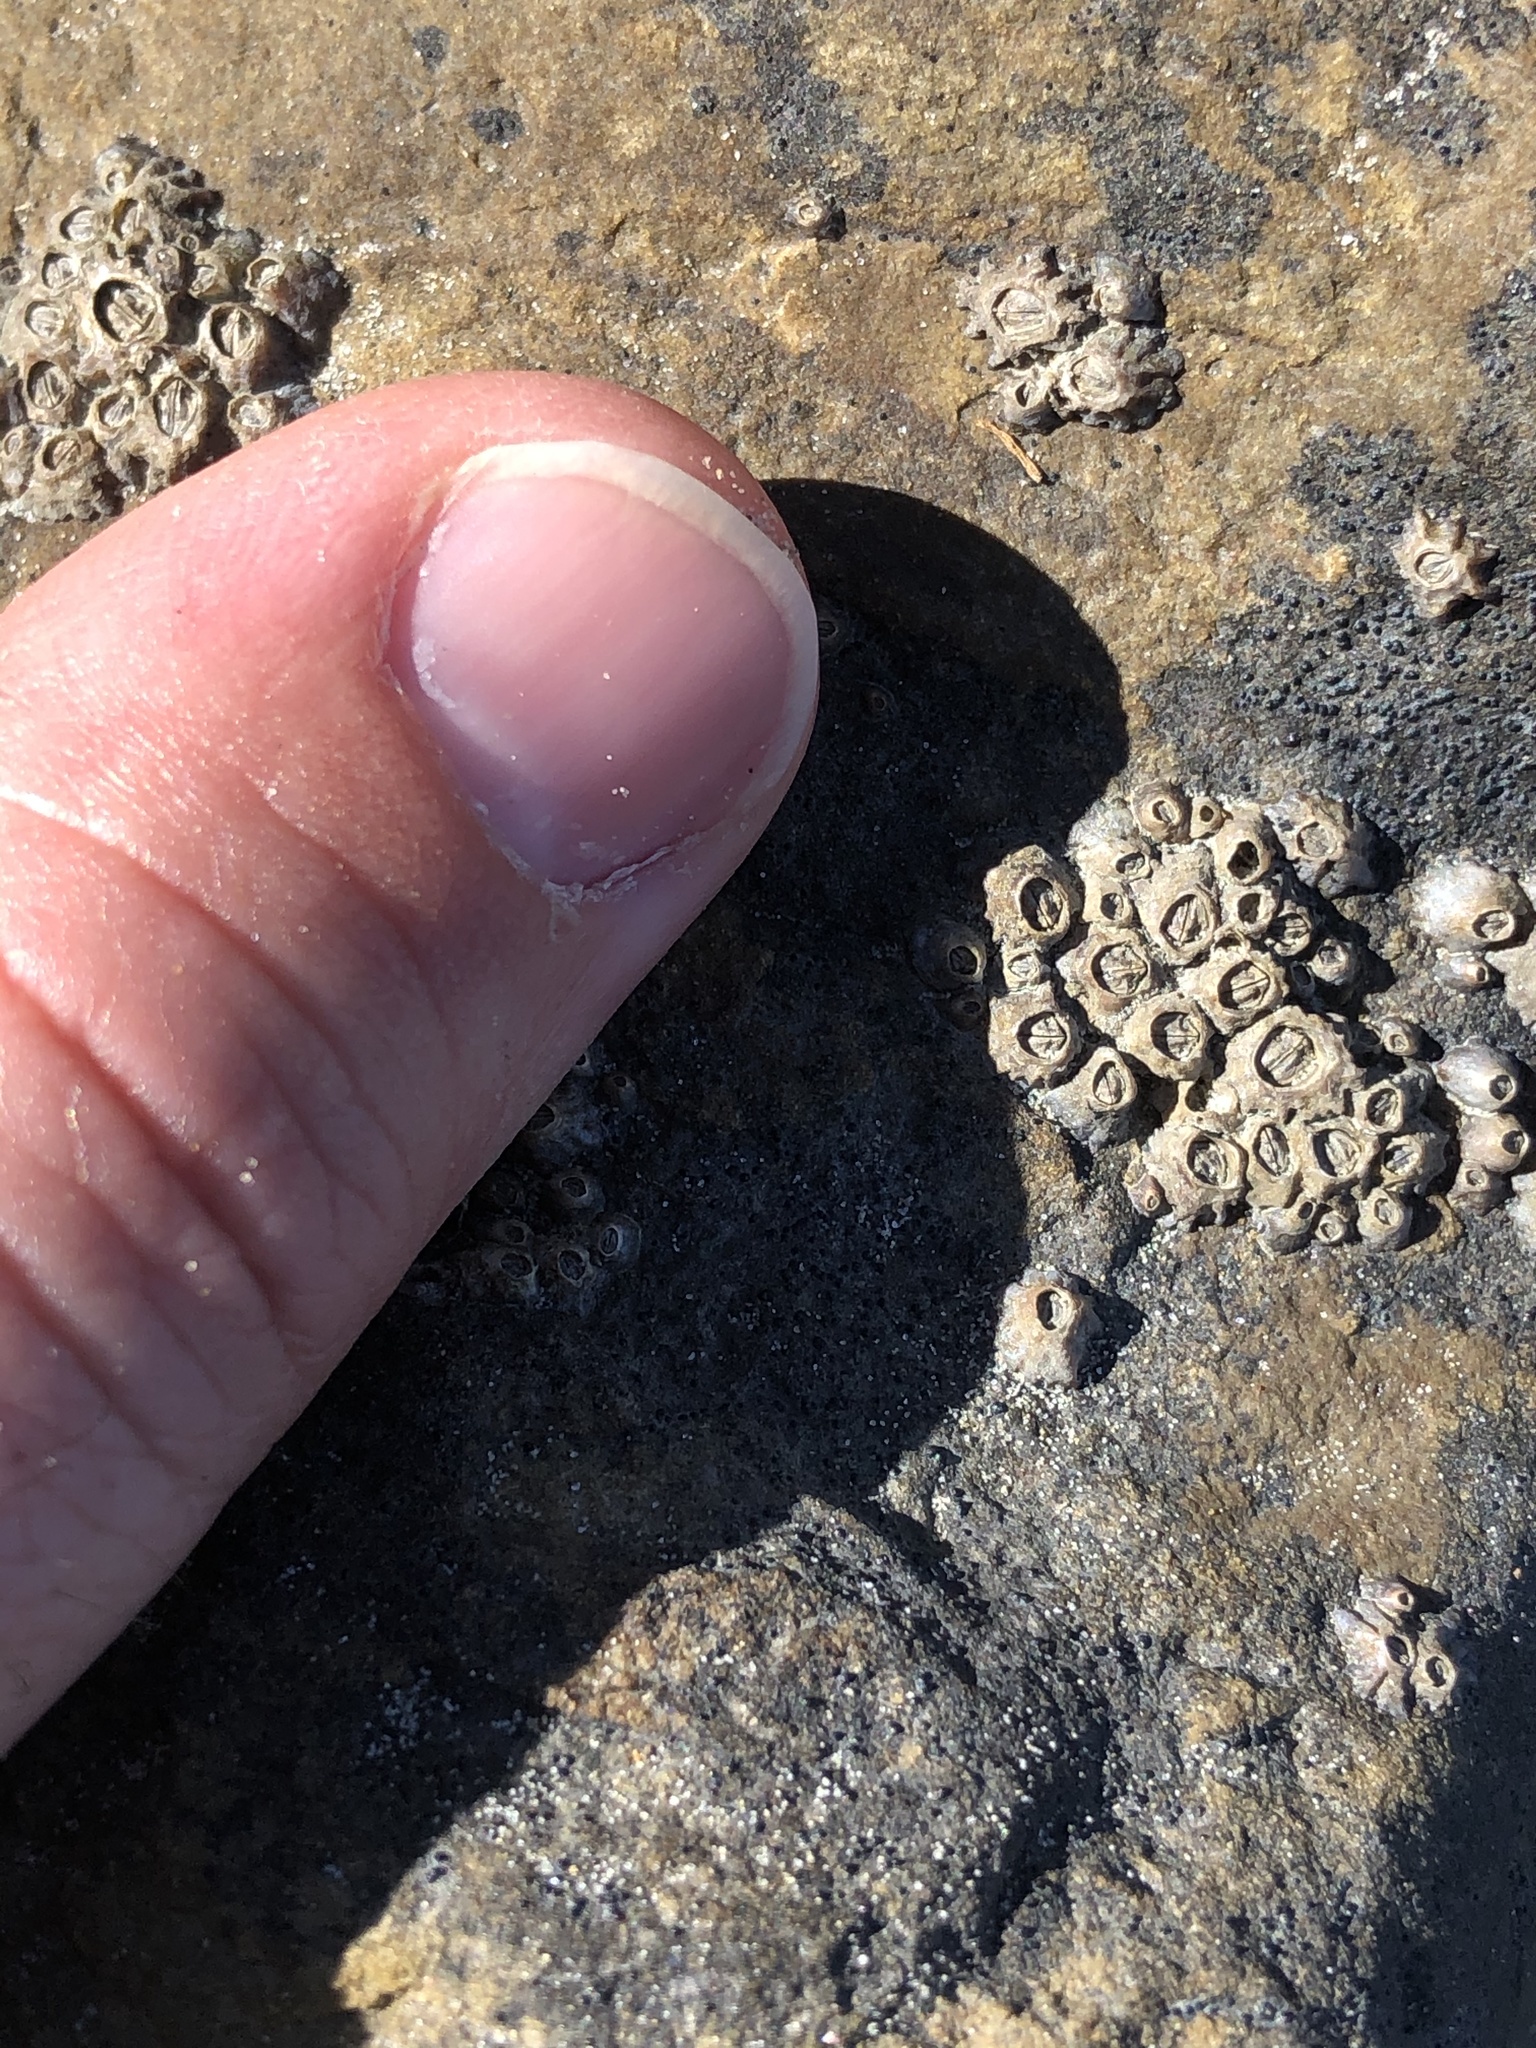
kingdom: Animalia
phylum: Arthropoda
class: Maxillopoda
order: Sessilia
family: Chthamalidae
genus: Chamaesipho
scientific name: Chamaesipho columna
